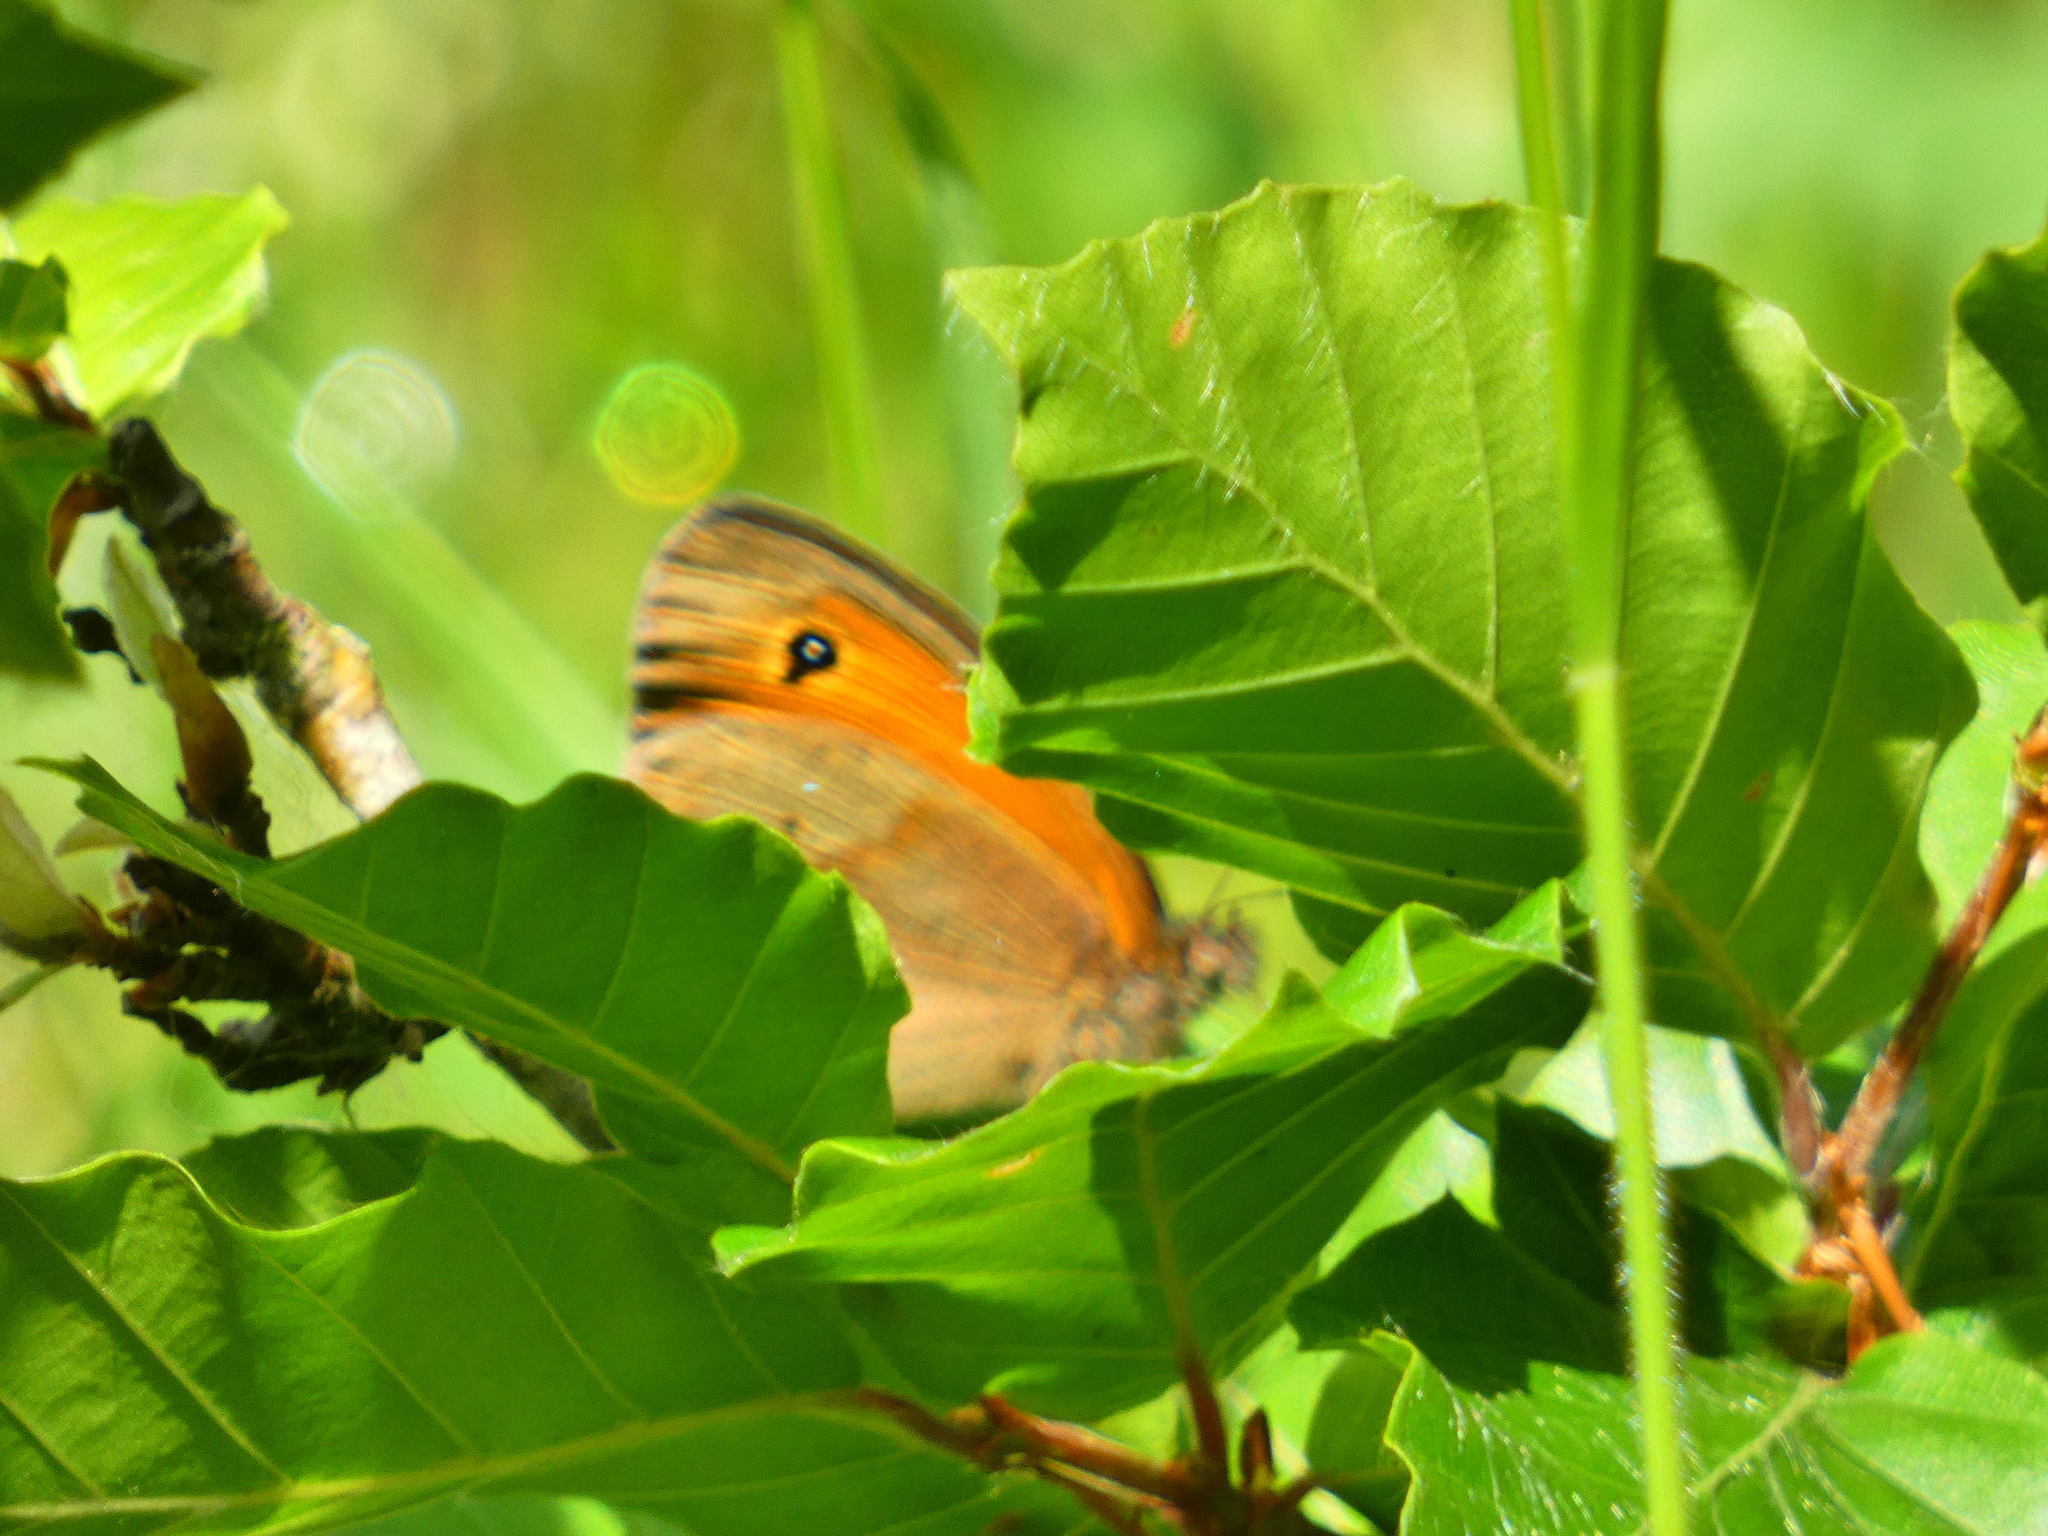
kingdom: Animalia
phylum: Arthropoda
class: Insecta
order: Lepidoptera
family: Nymphalidae
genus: Maniola
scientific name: Maniola jurtina
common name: Meadow brown
